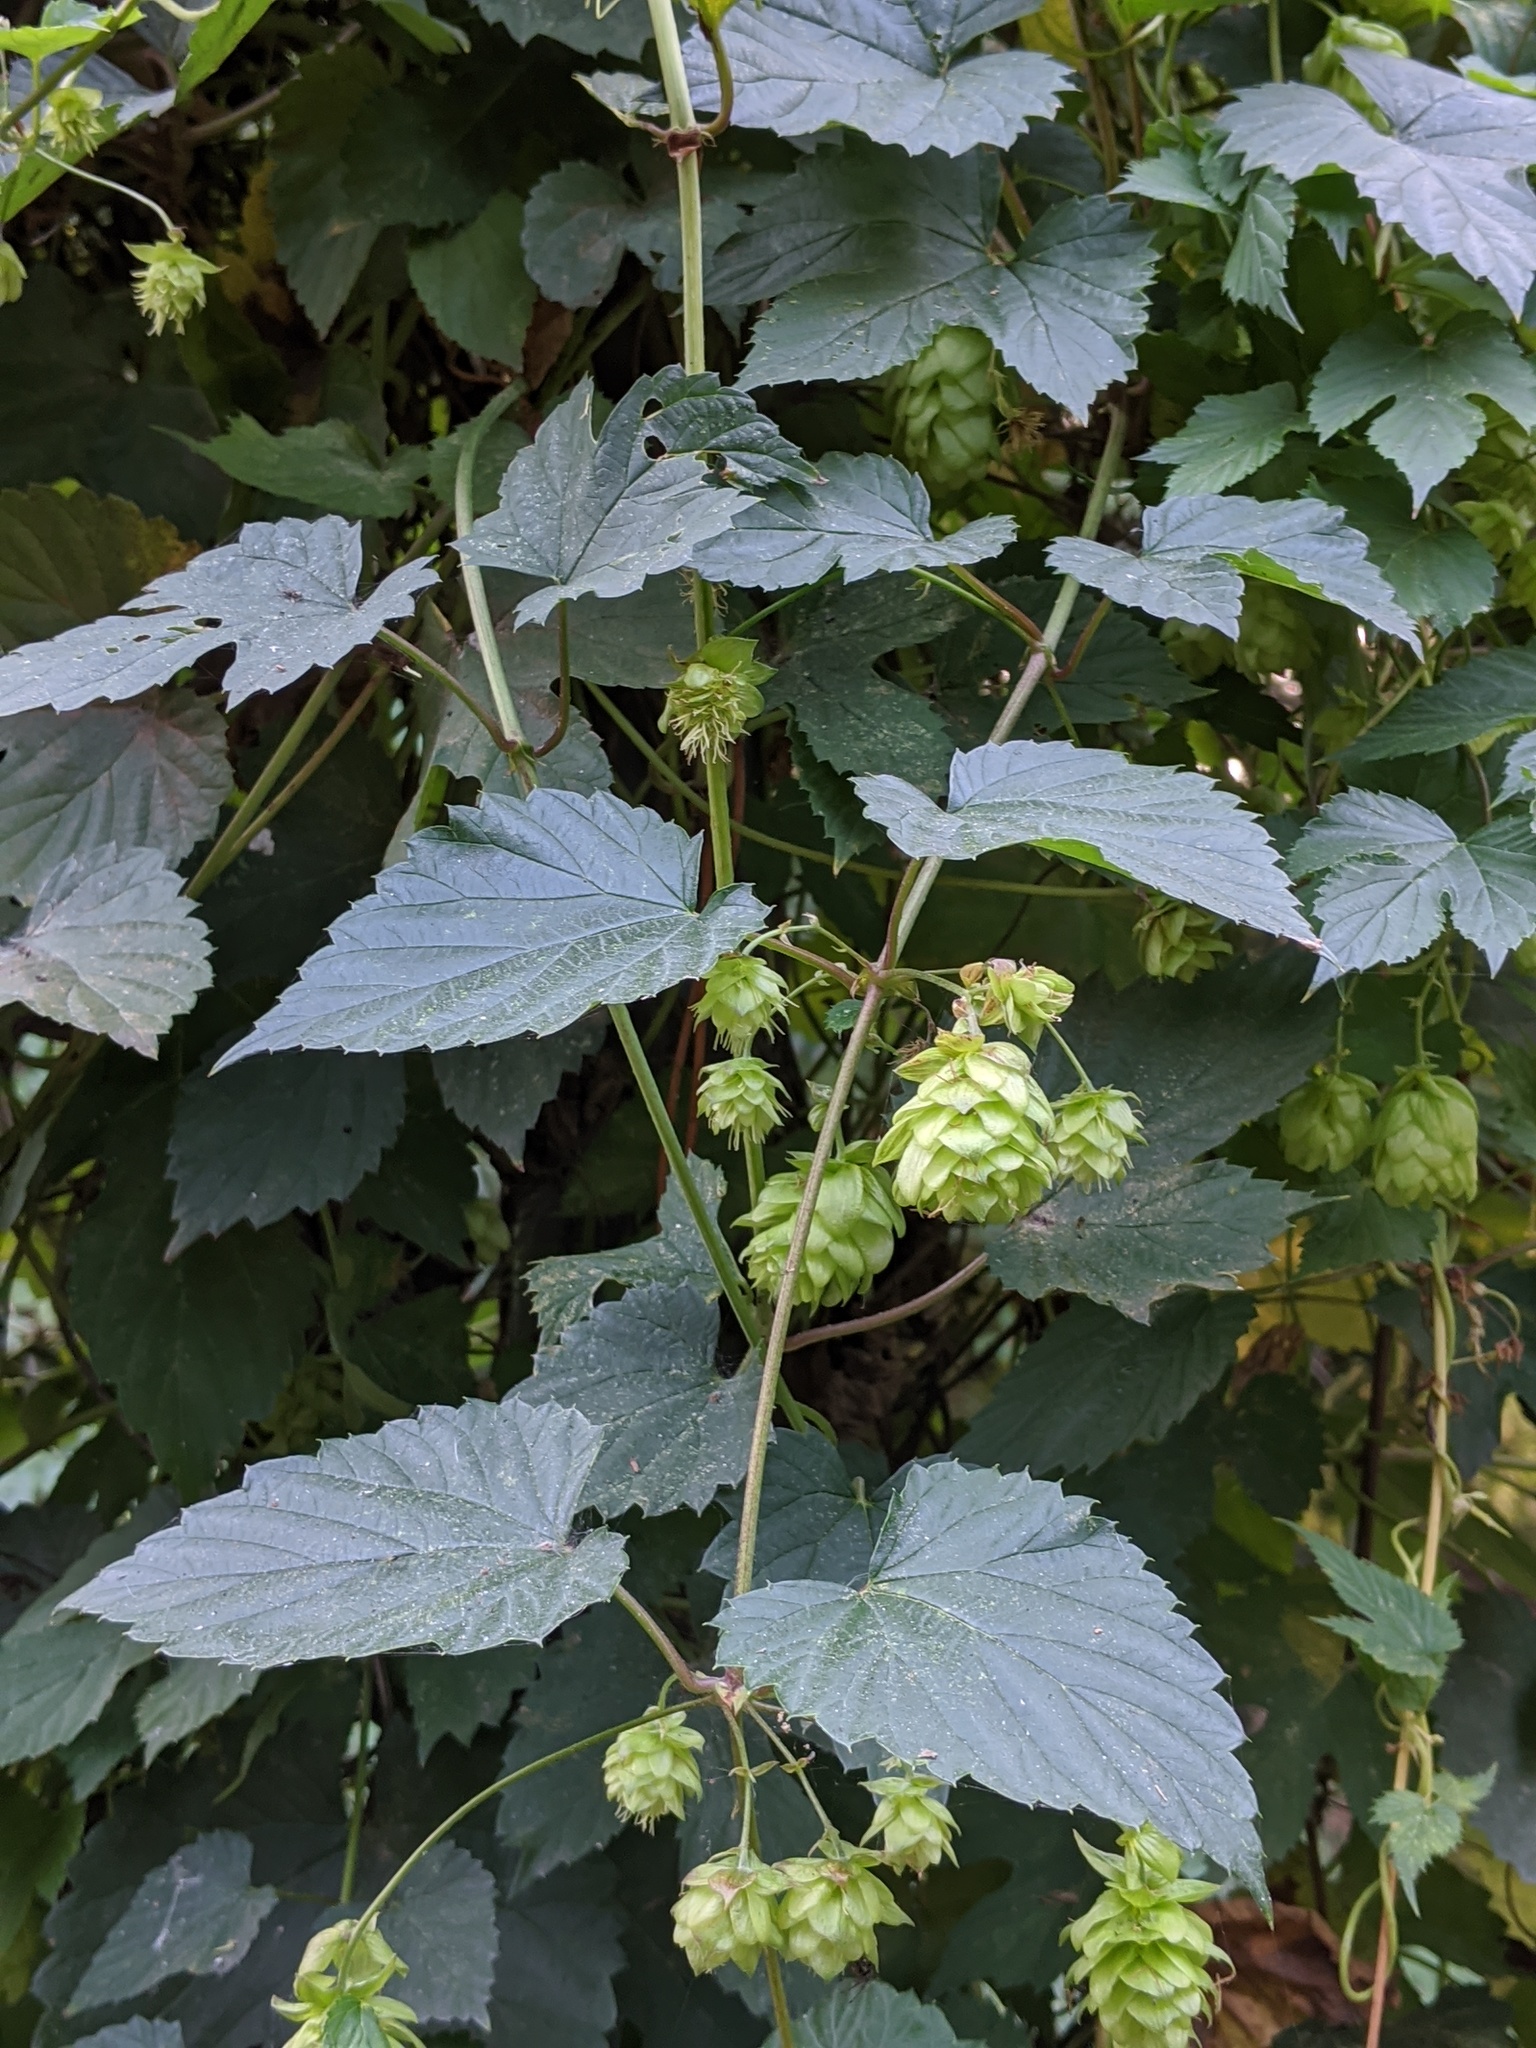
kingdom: Plantae
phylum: Tracheophyta
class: Magnoliopsida
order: Rosales
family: Cannabaceae
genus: Humulus
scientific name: Humulus lupulus
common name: Hop
